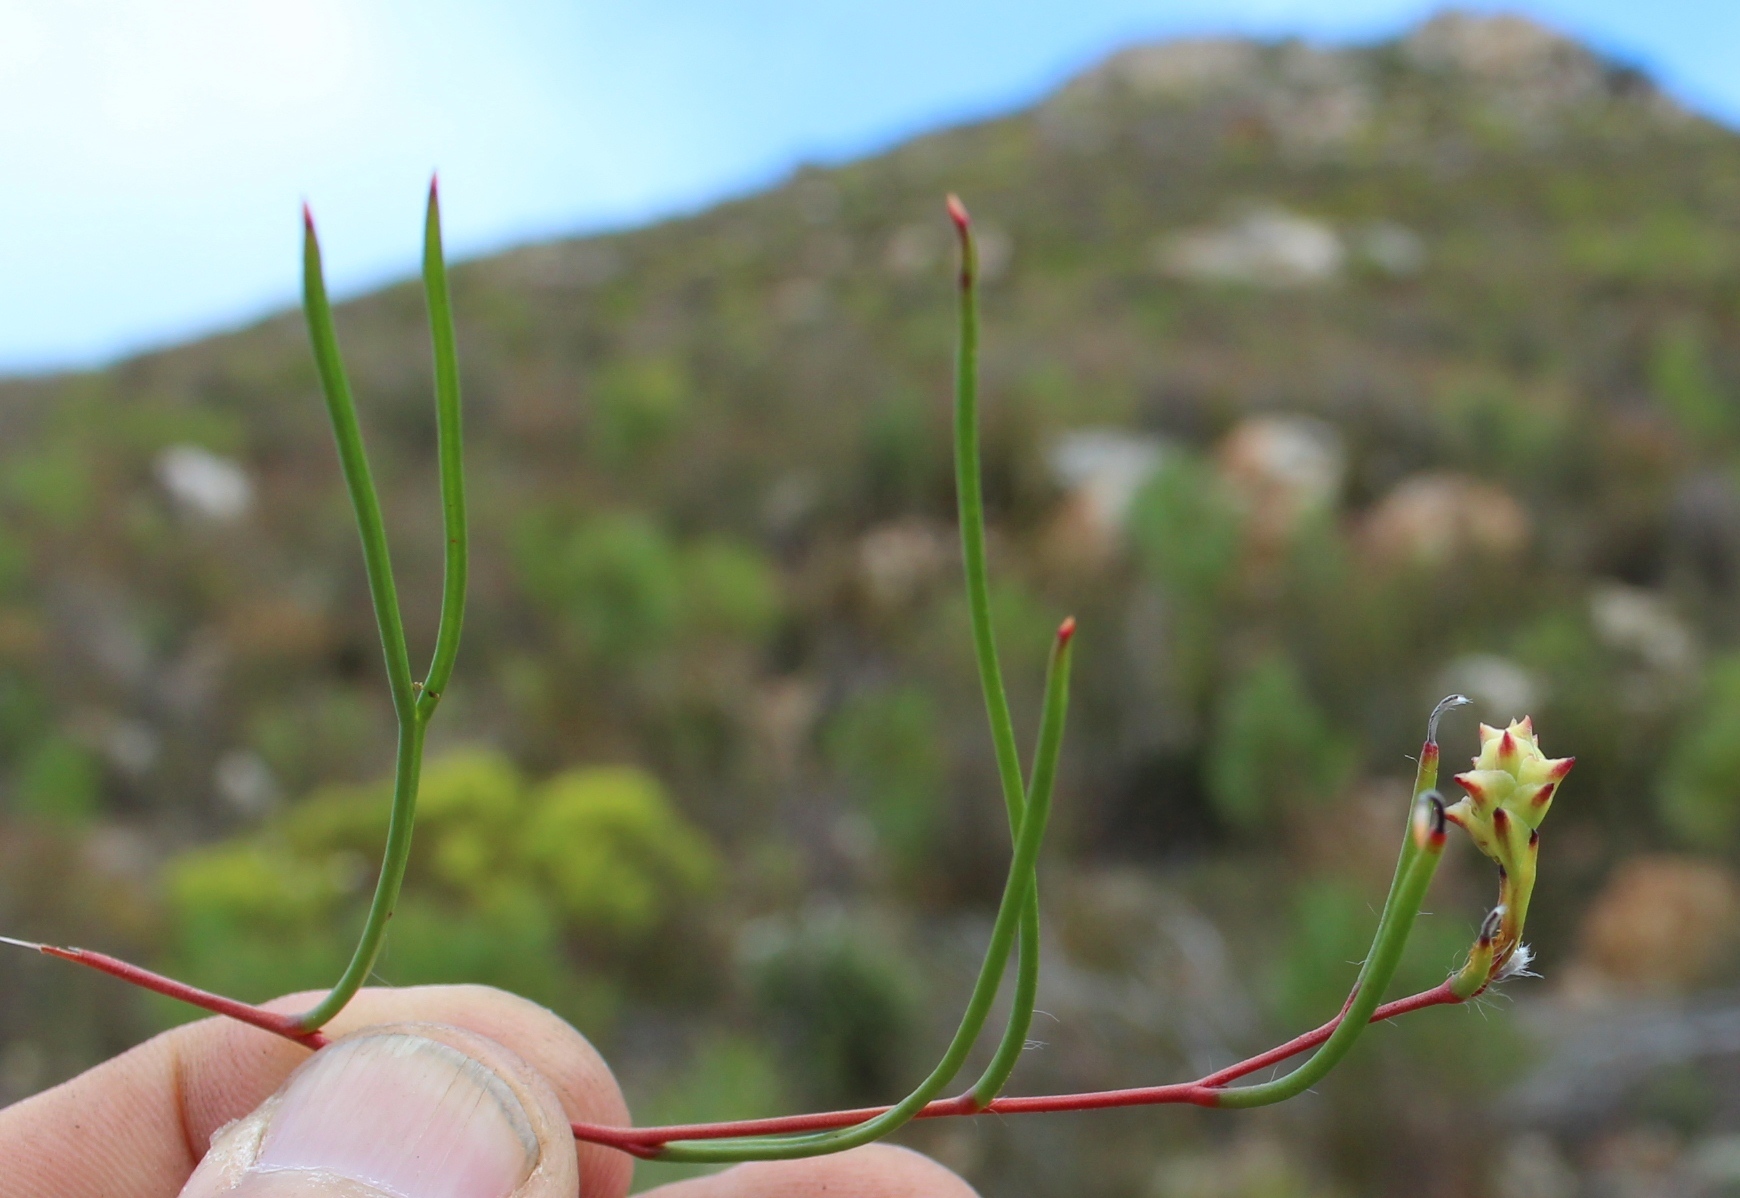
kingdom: Plantae
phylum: Tracheophyta
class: Magnoliopsida
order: Proteales
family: Proteaceae
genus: Serruria
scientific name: Serruria flagellifolia
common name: Houwhoek spiderhead
